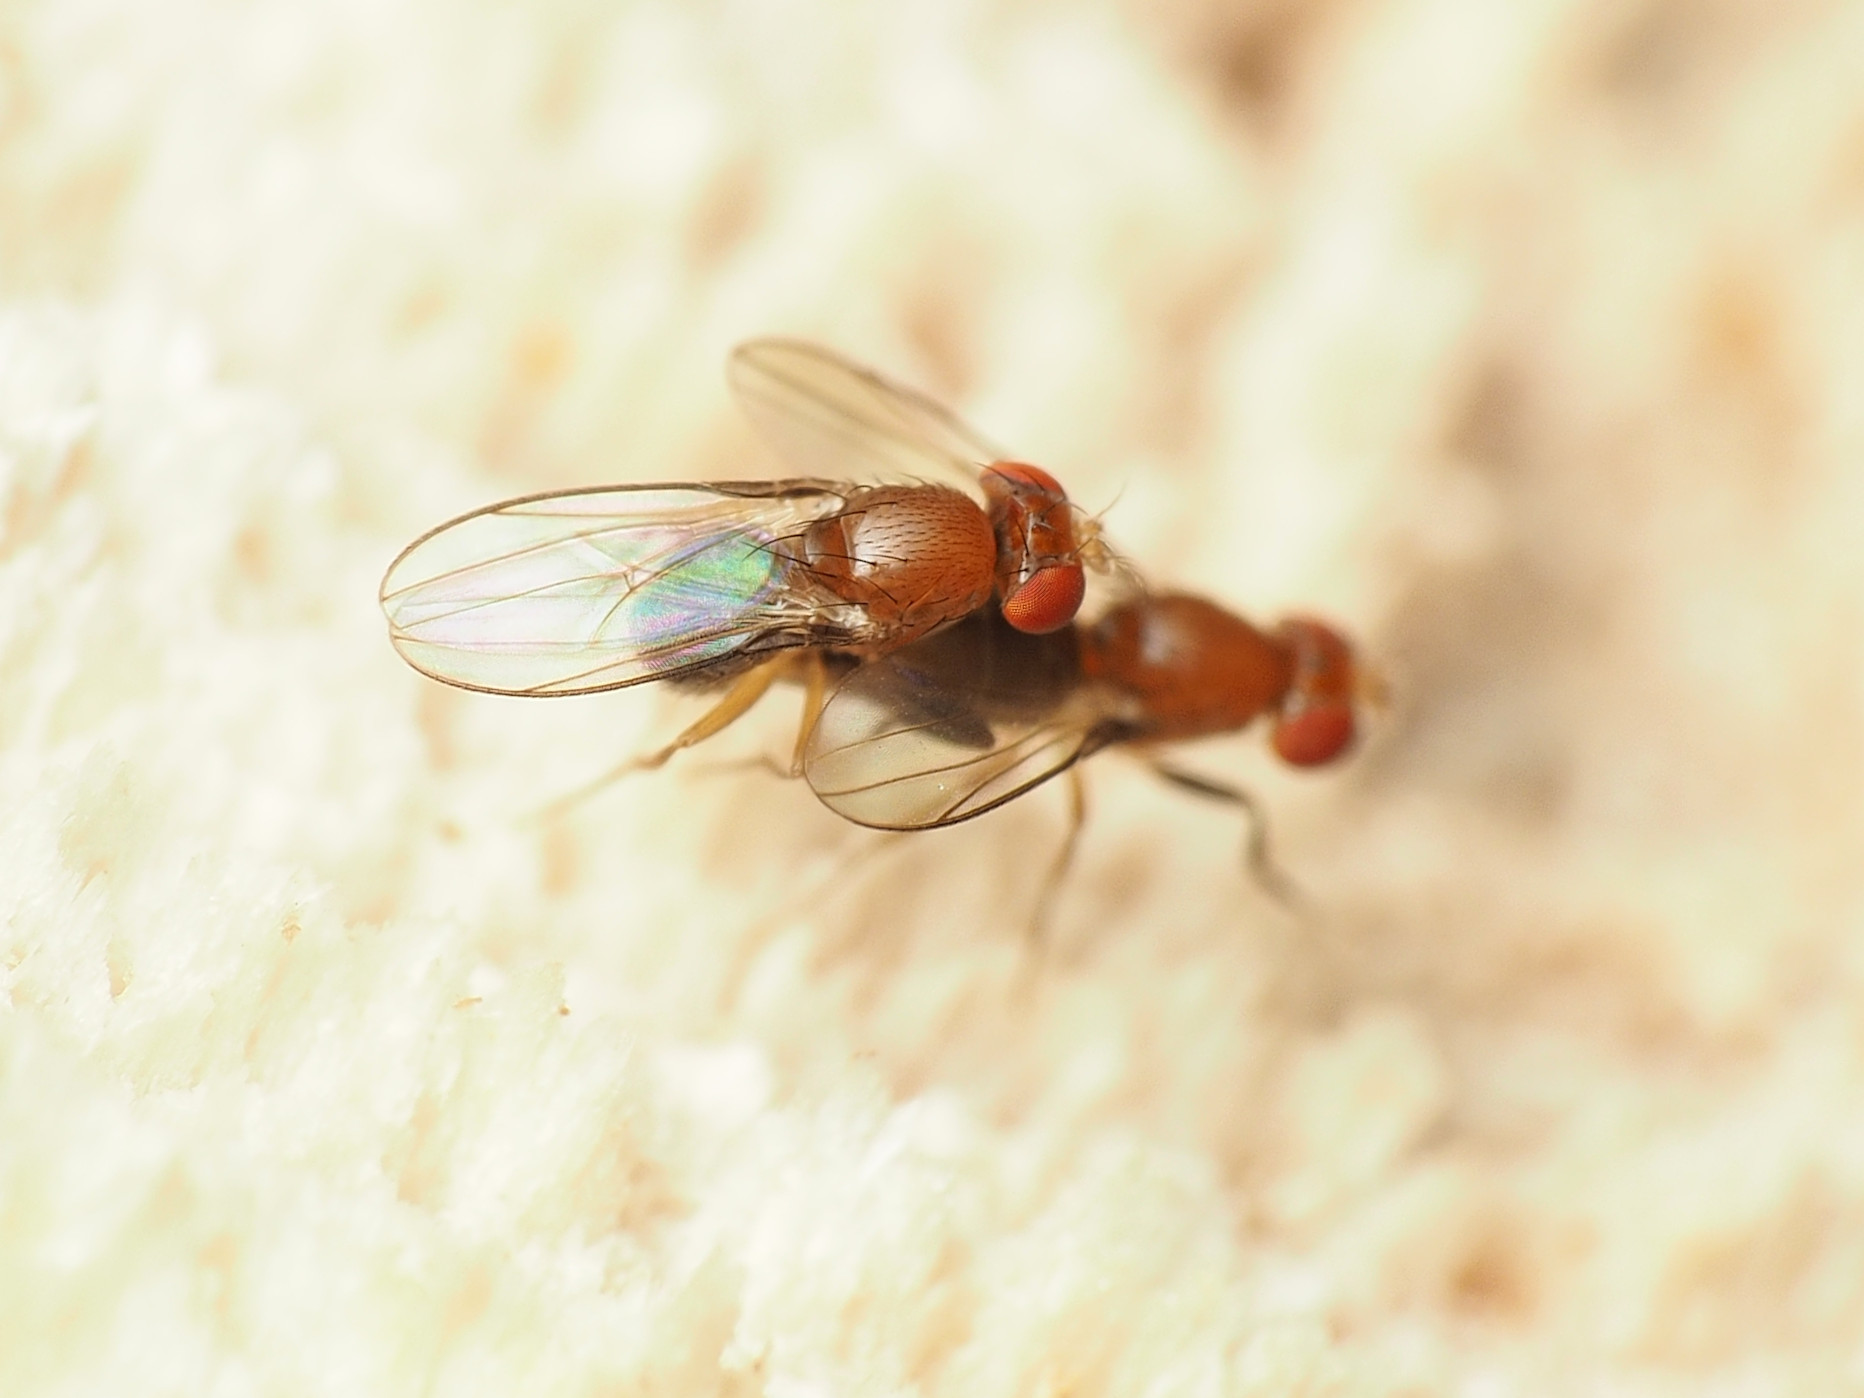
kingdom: Animalia
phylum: Arthropoda
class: Insecta
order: Diptera
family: Drosophilidae
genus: Chymomyza
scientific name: Chymomyza procnemoides
